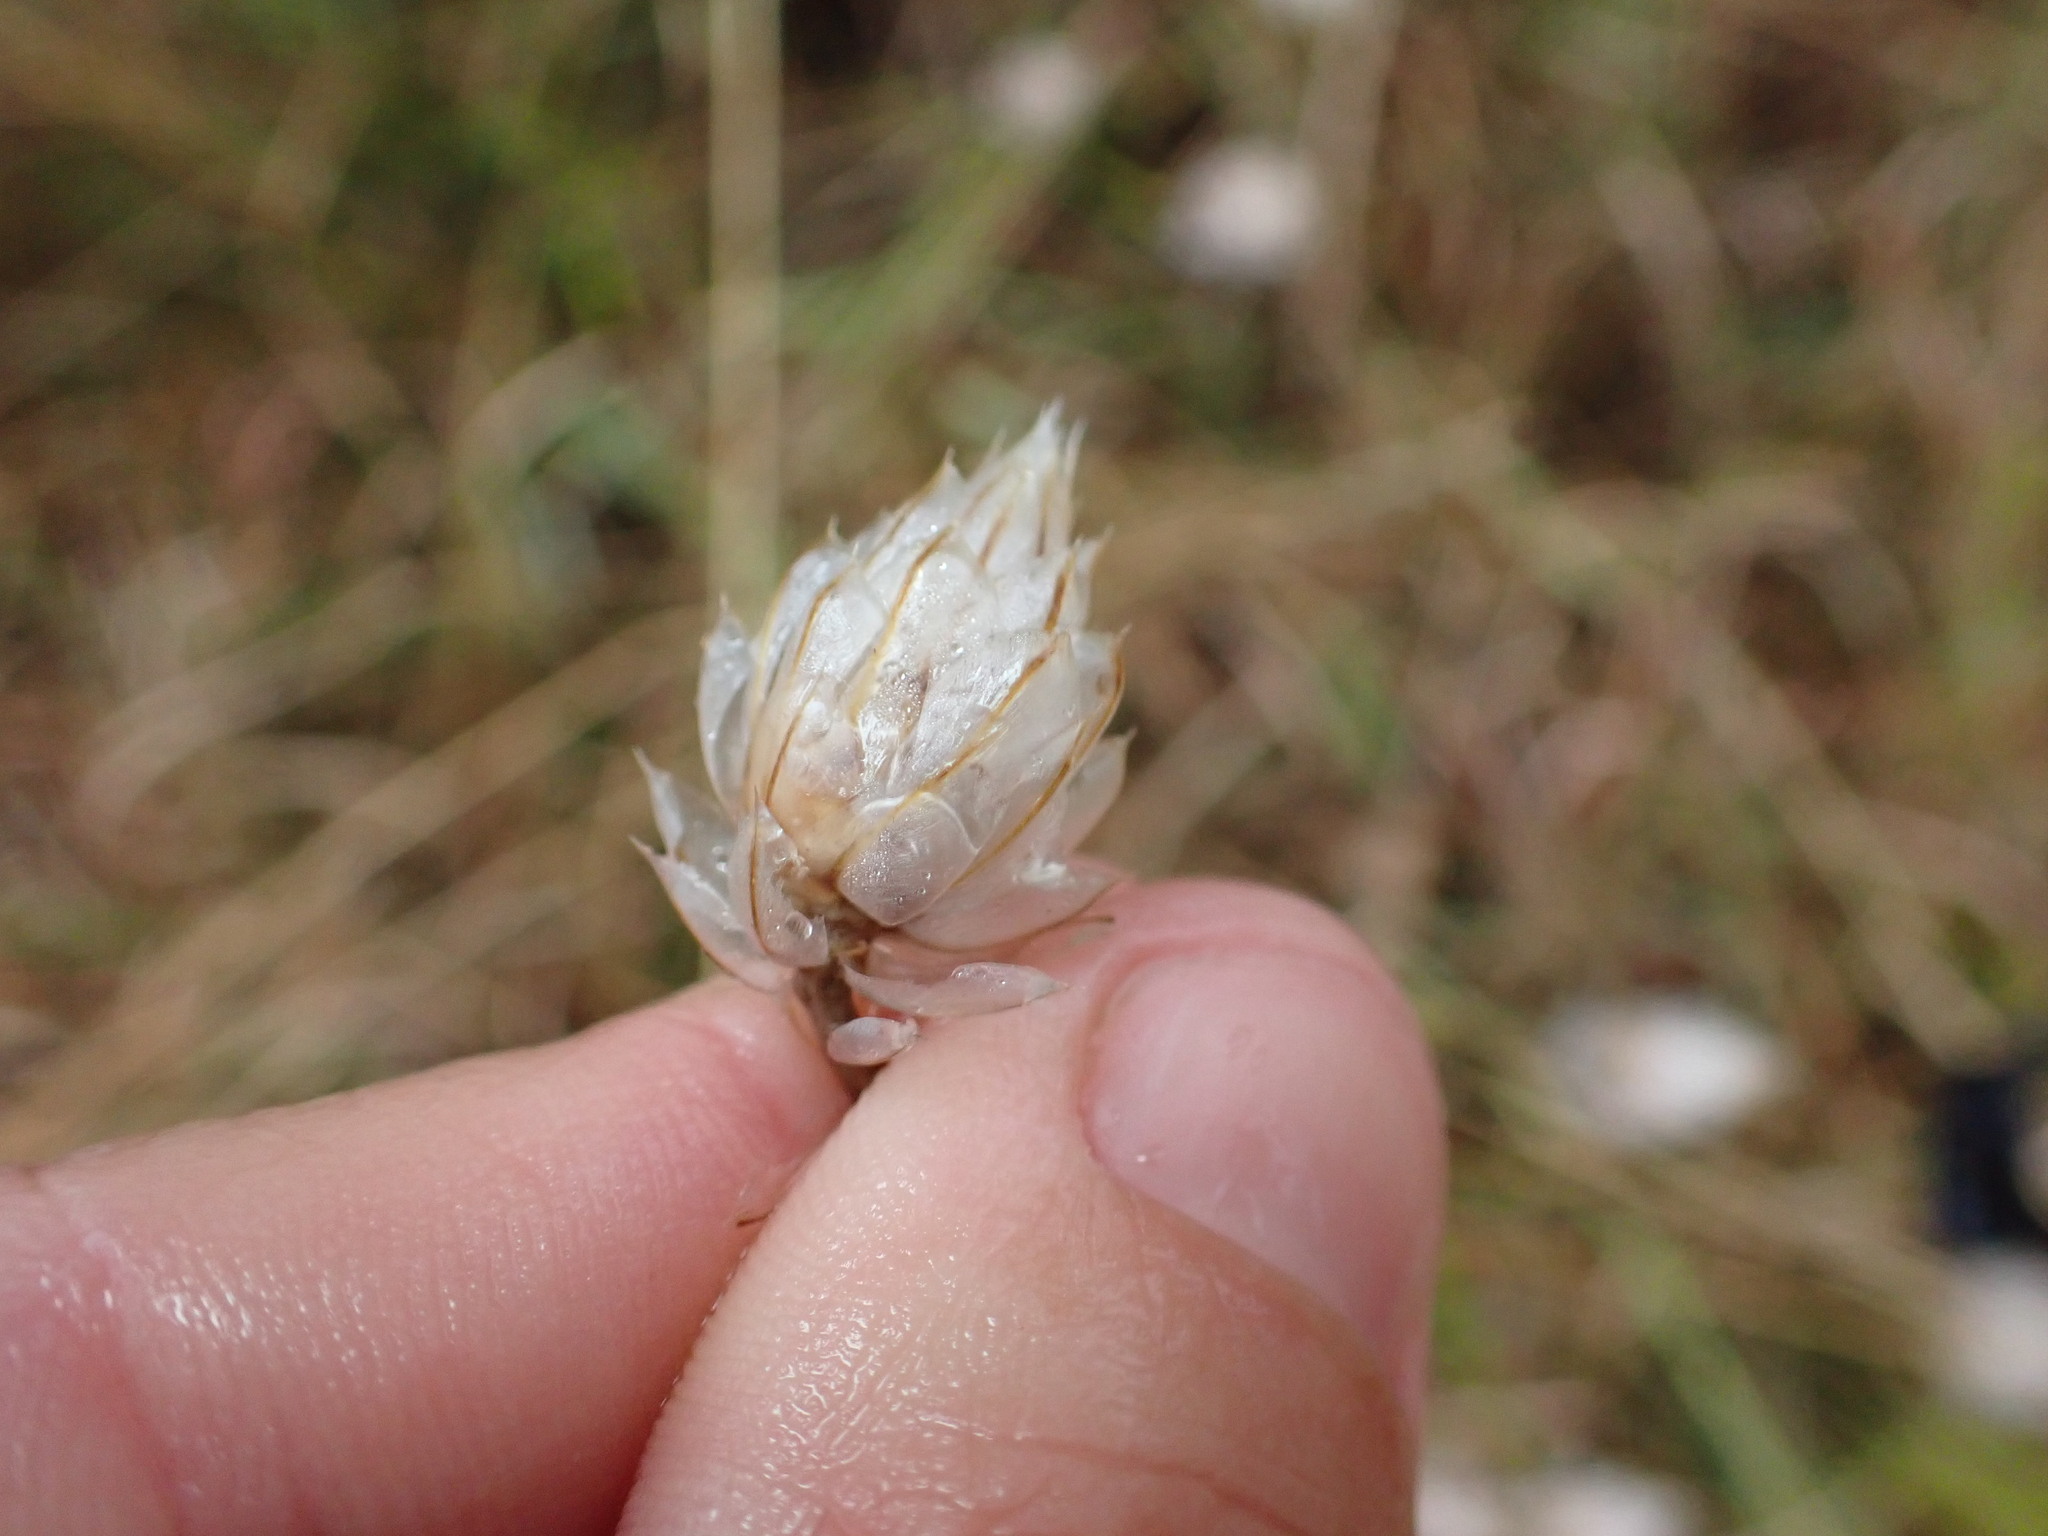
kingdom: Plantae
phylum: Tracheophyta
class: Magnoliopsida
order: Asterales
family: Asteraceae
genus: Catananche
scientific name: Catananche caerulea
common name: Blue cupidone
